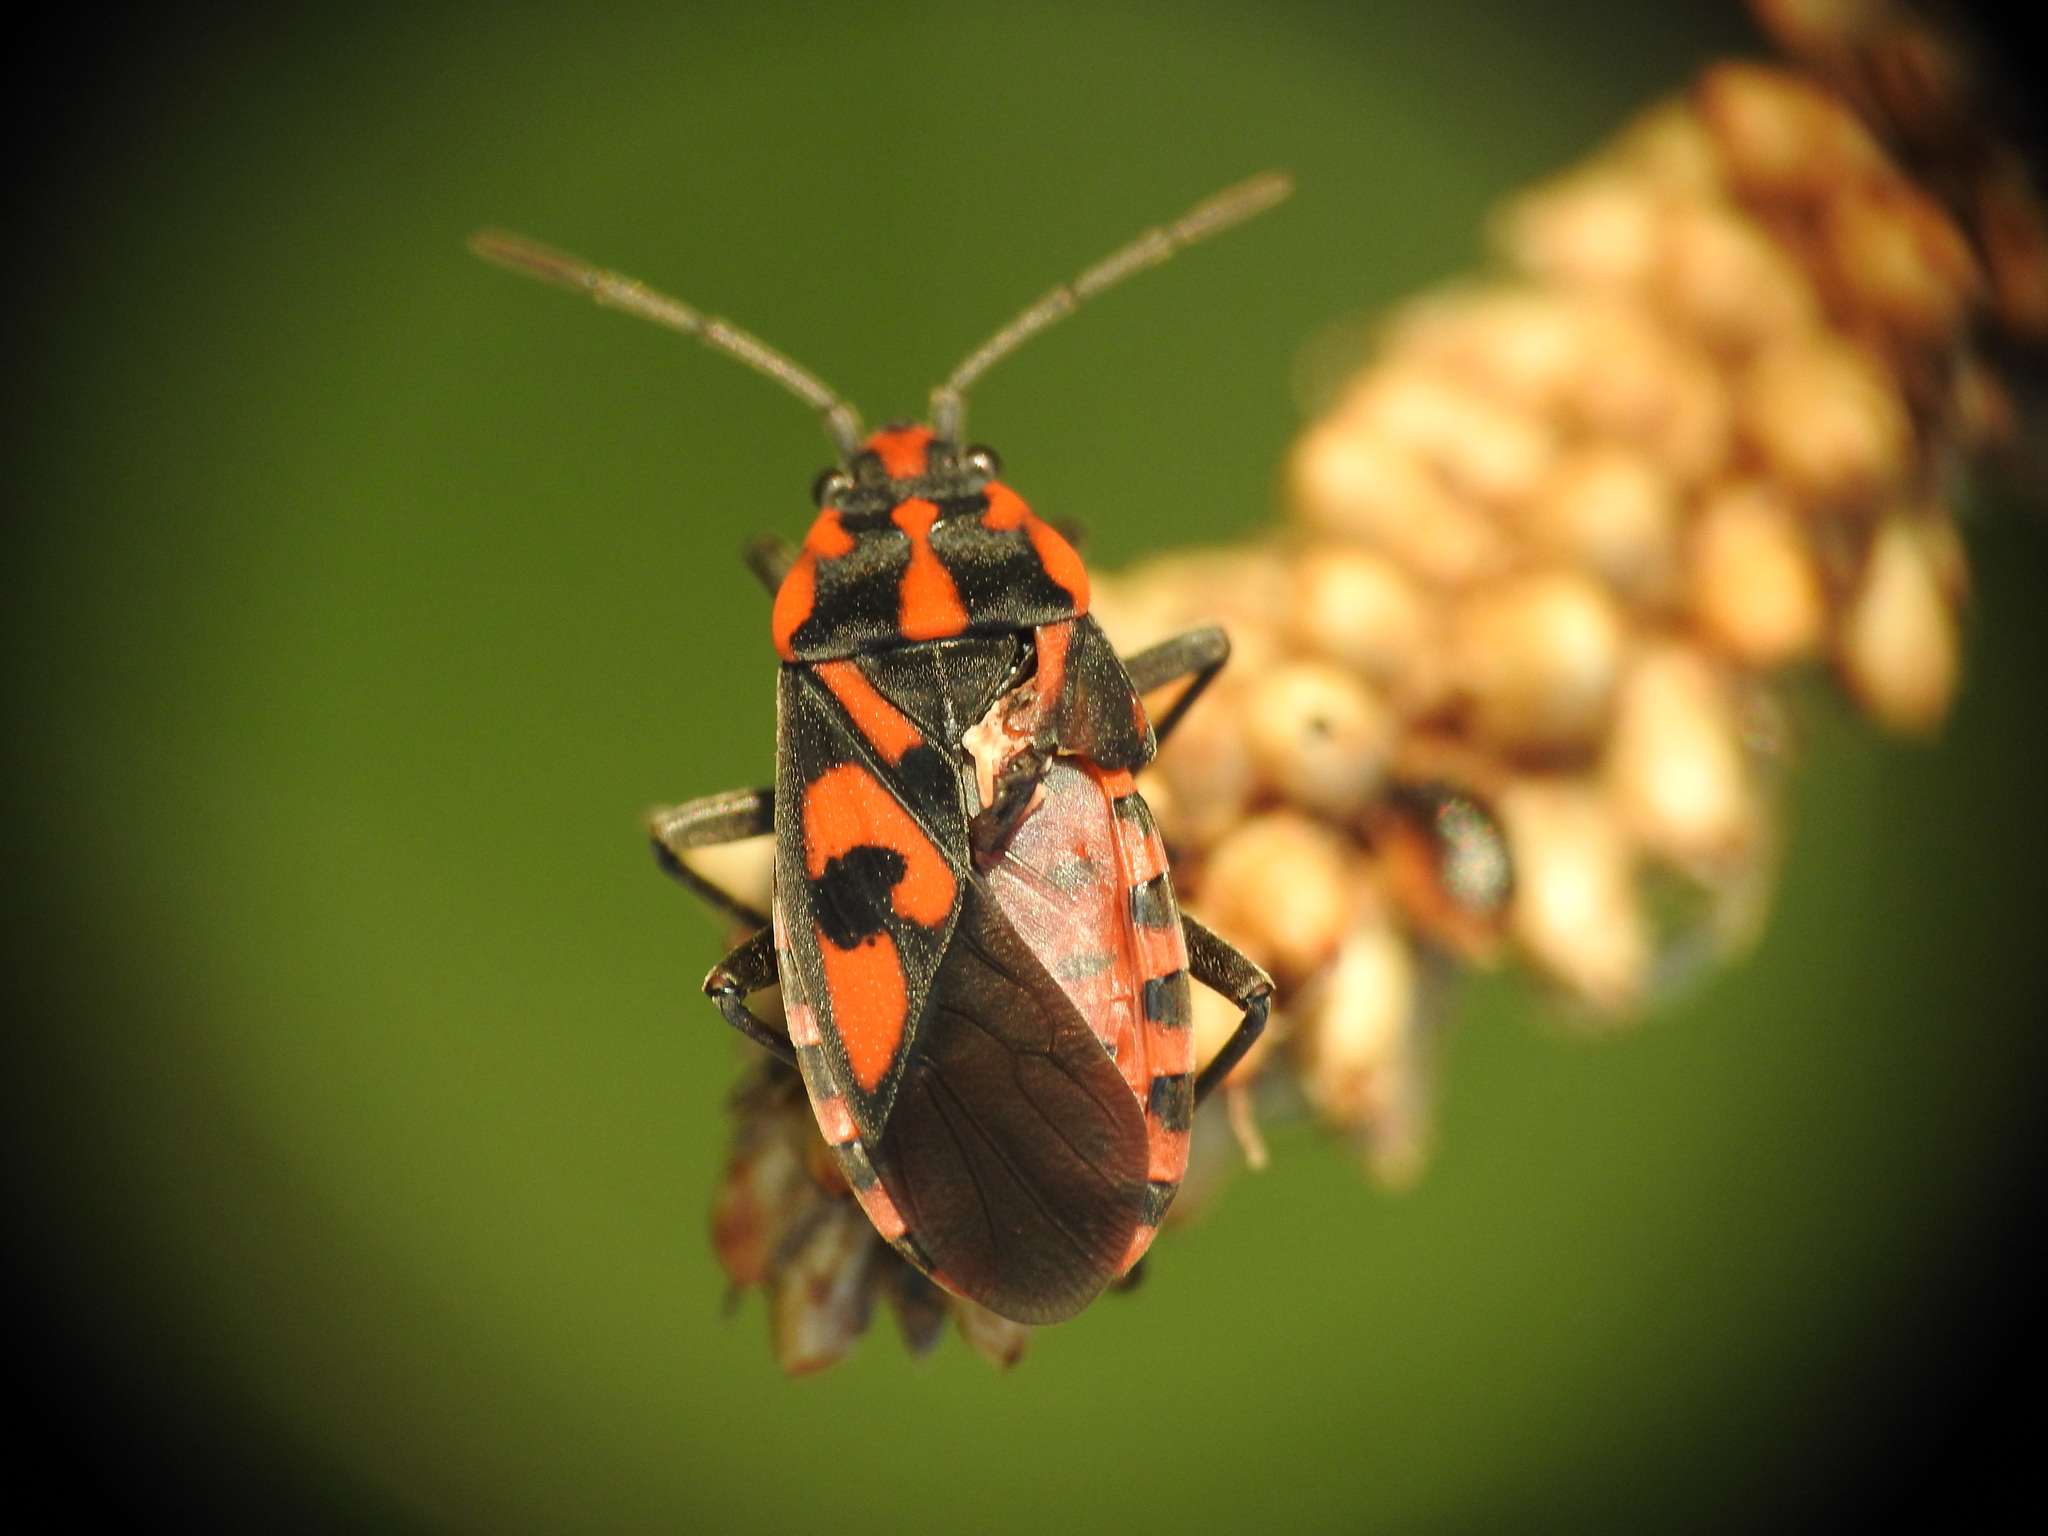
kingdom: Animalia
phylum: Arthropoda
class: Insecta
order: Hemiptera
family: Lygaeidae
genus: Spilostethus
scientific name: Spilostethus saxatilis
